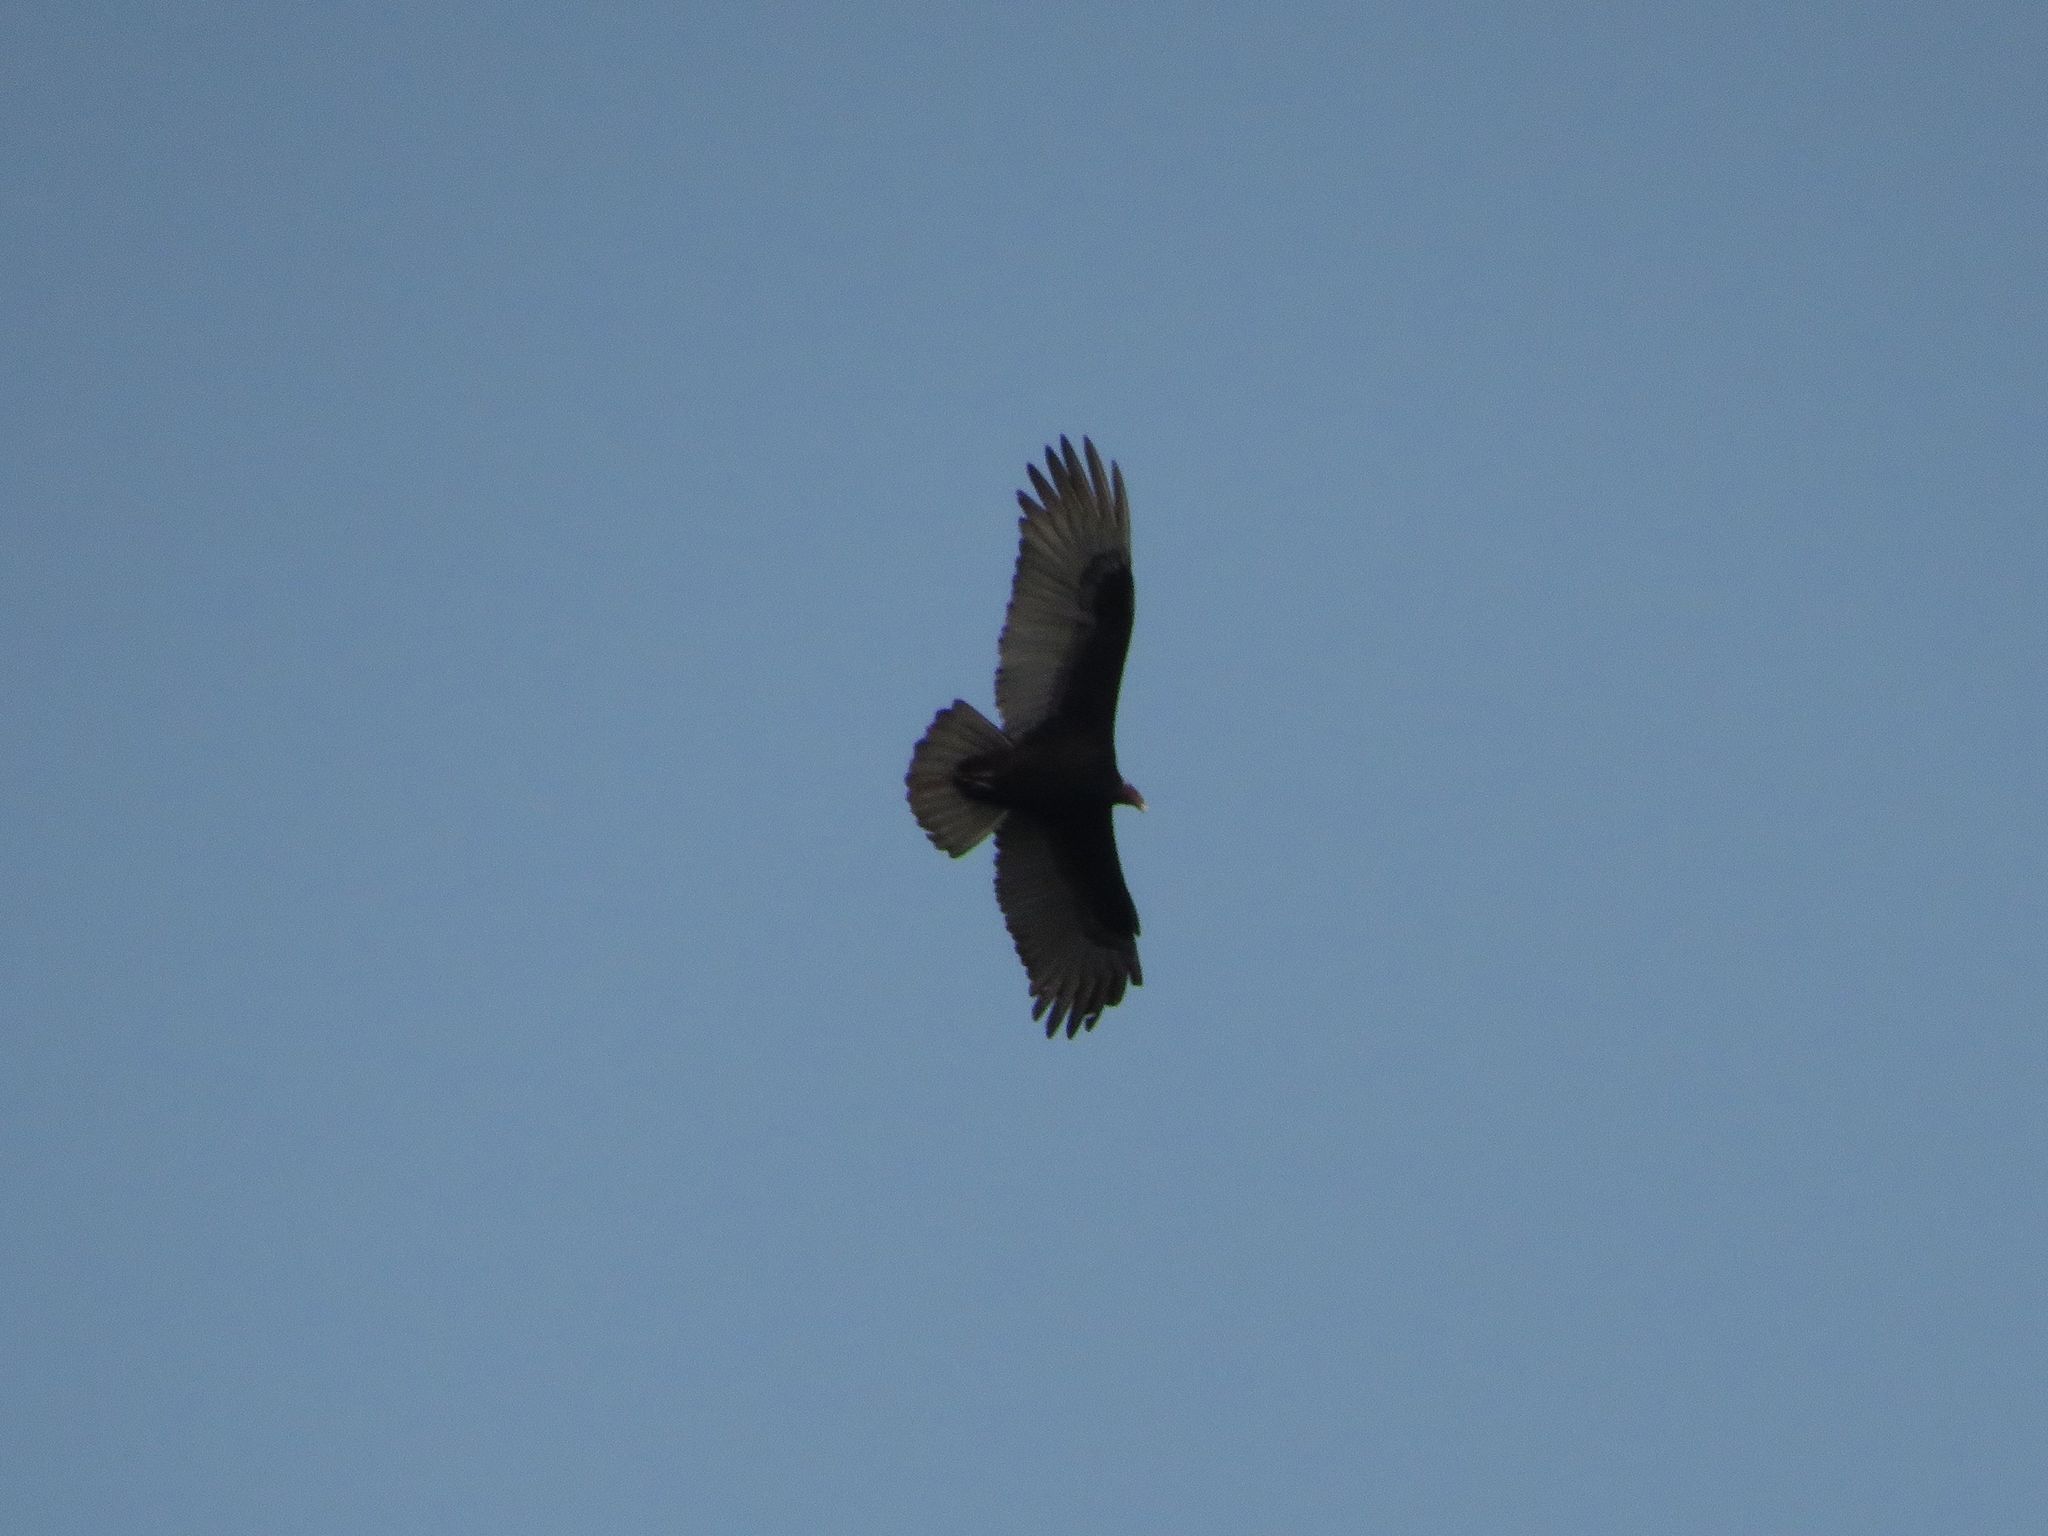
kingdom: Animalia
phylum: Chordata
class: Aves
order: Accipitriformes
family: Cathartidae
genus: Cathartes
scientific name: Cathartes aura
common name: Turkey vulture
